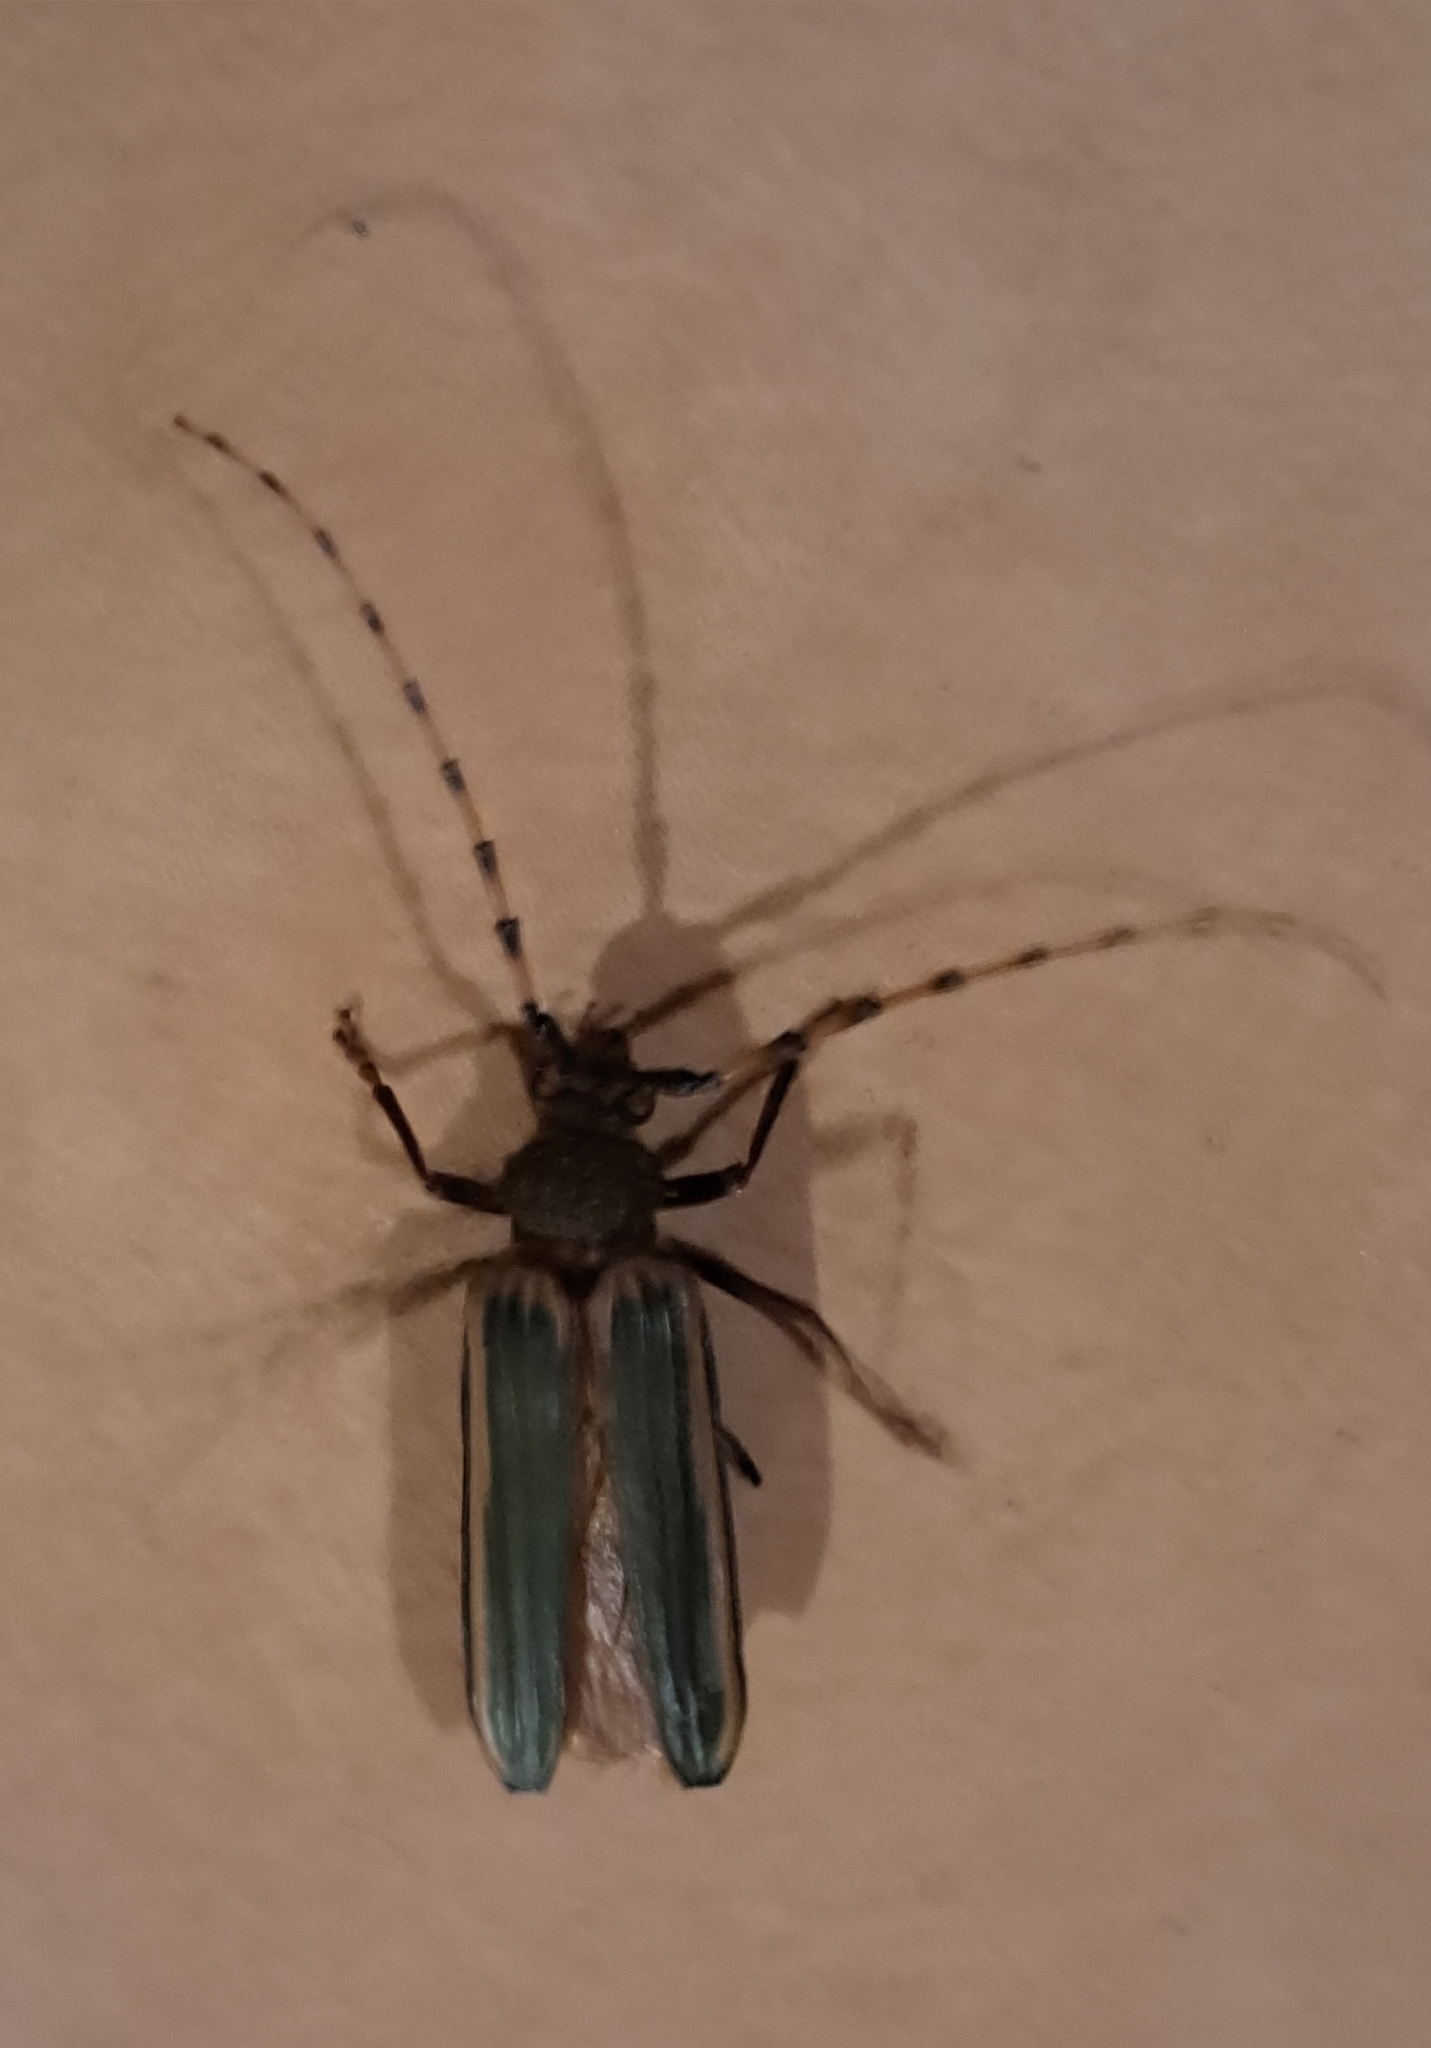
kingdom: Animalia
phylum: Arthropoda
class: Insecta
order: Coleoptera
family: Cerambycidae
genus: Chlorida
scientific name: Chlorida costata
